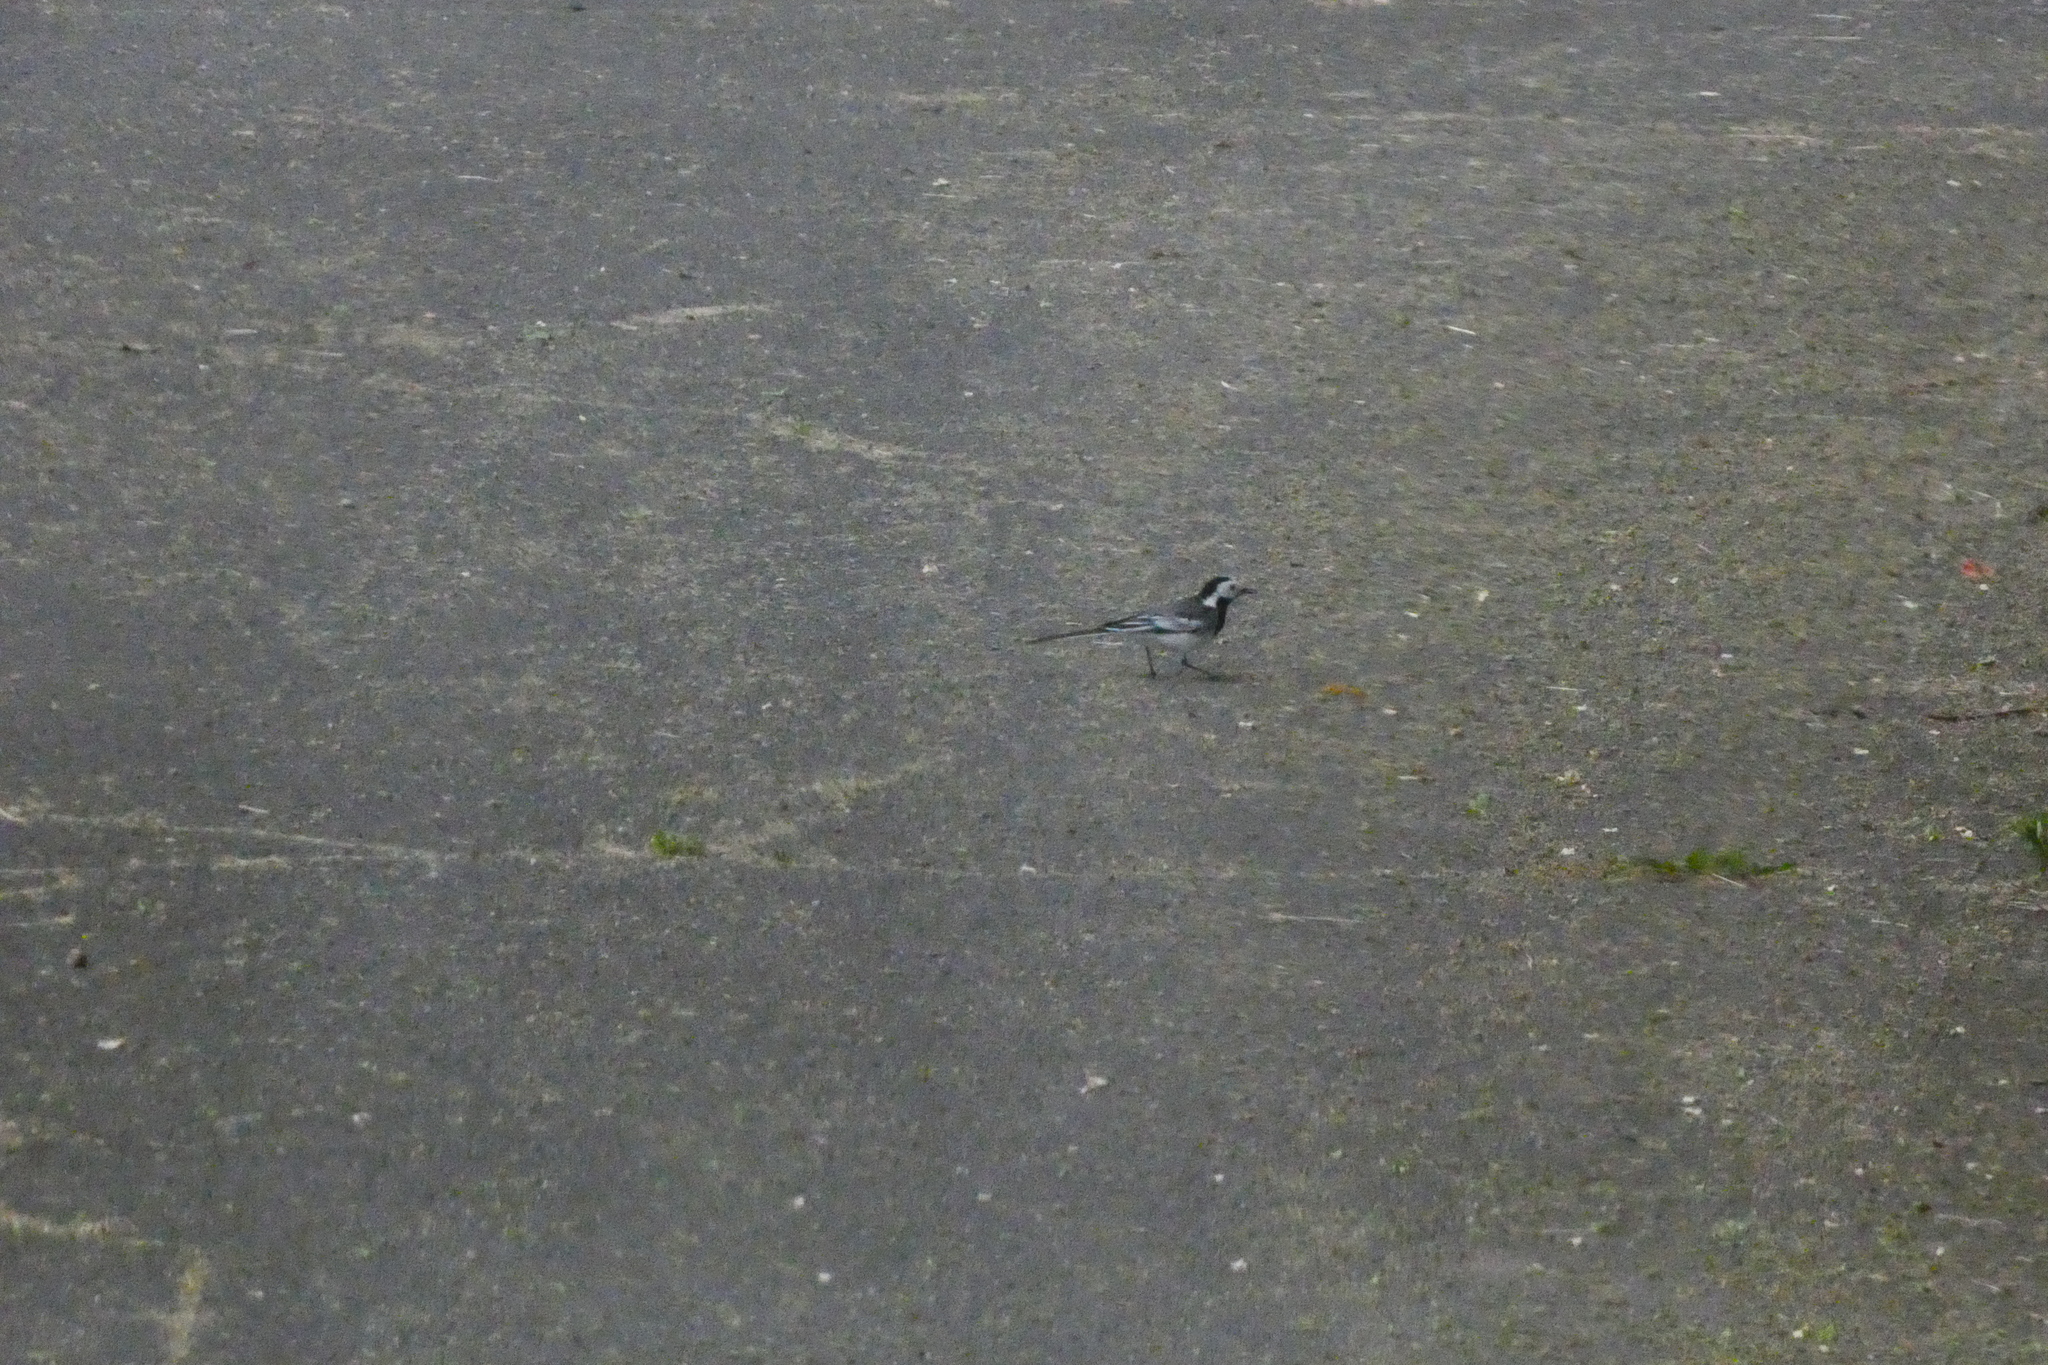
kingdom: Animalia
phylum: Chordata
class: Aves
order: Passeriformes
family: Motacillidae
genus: Motacilla
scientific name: Motacilla alba
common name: White wagtail
